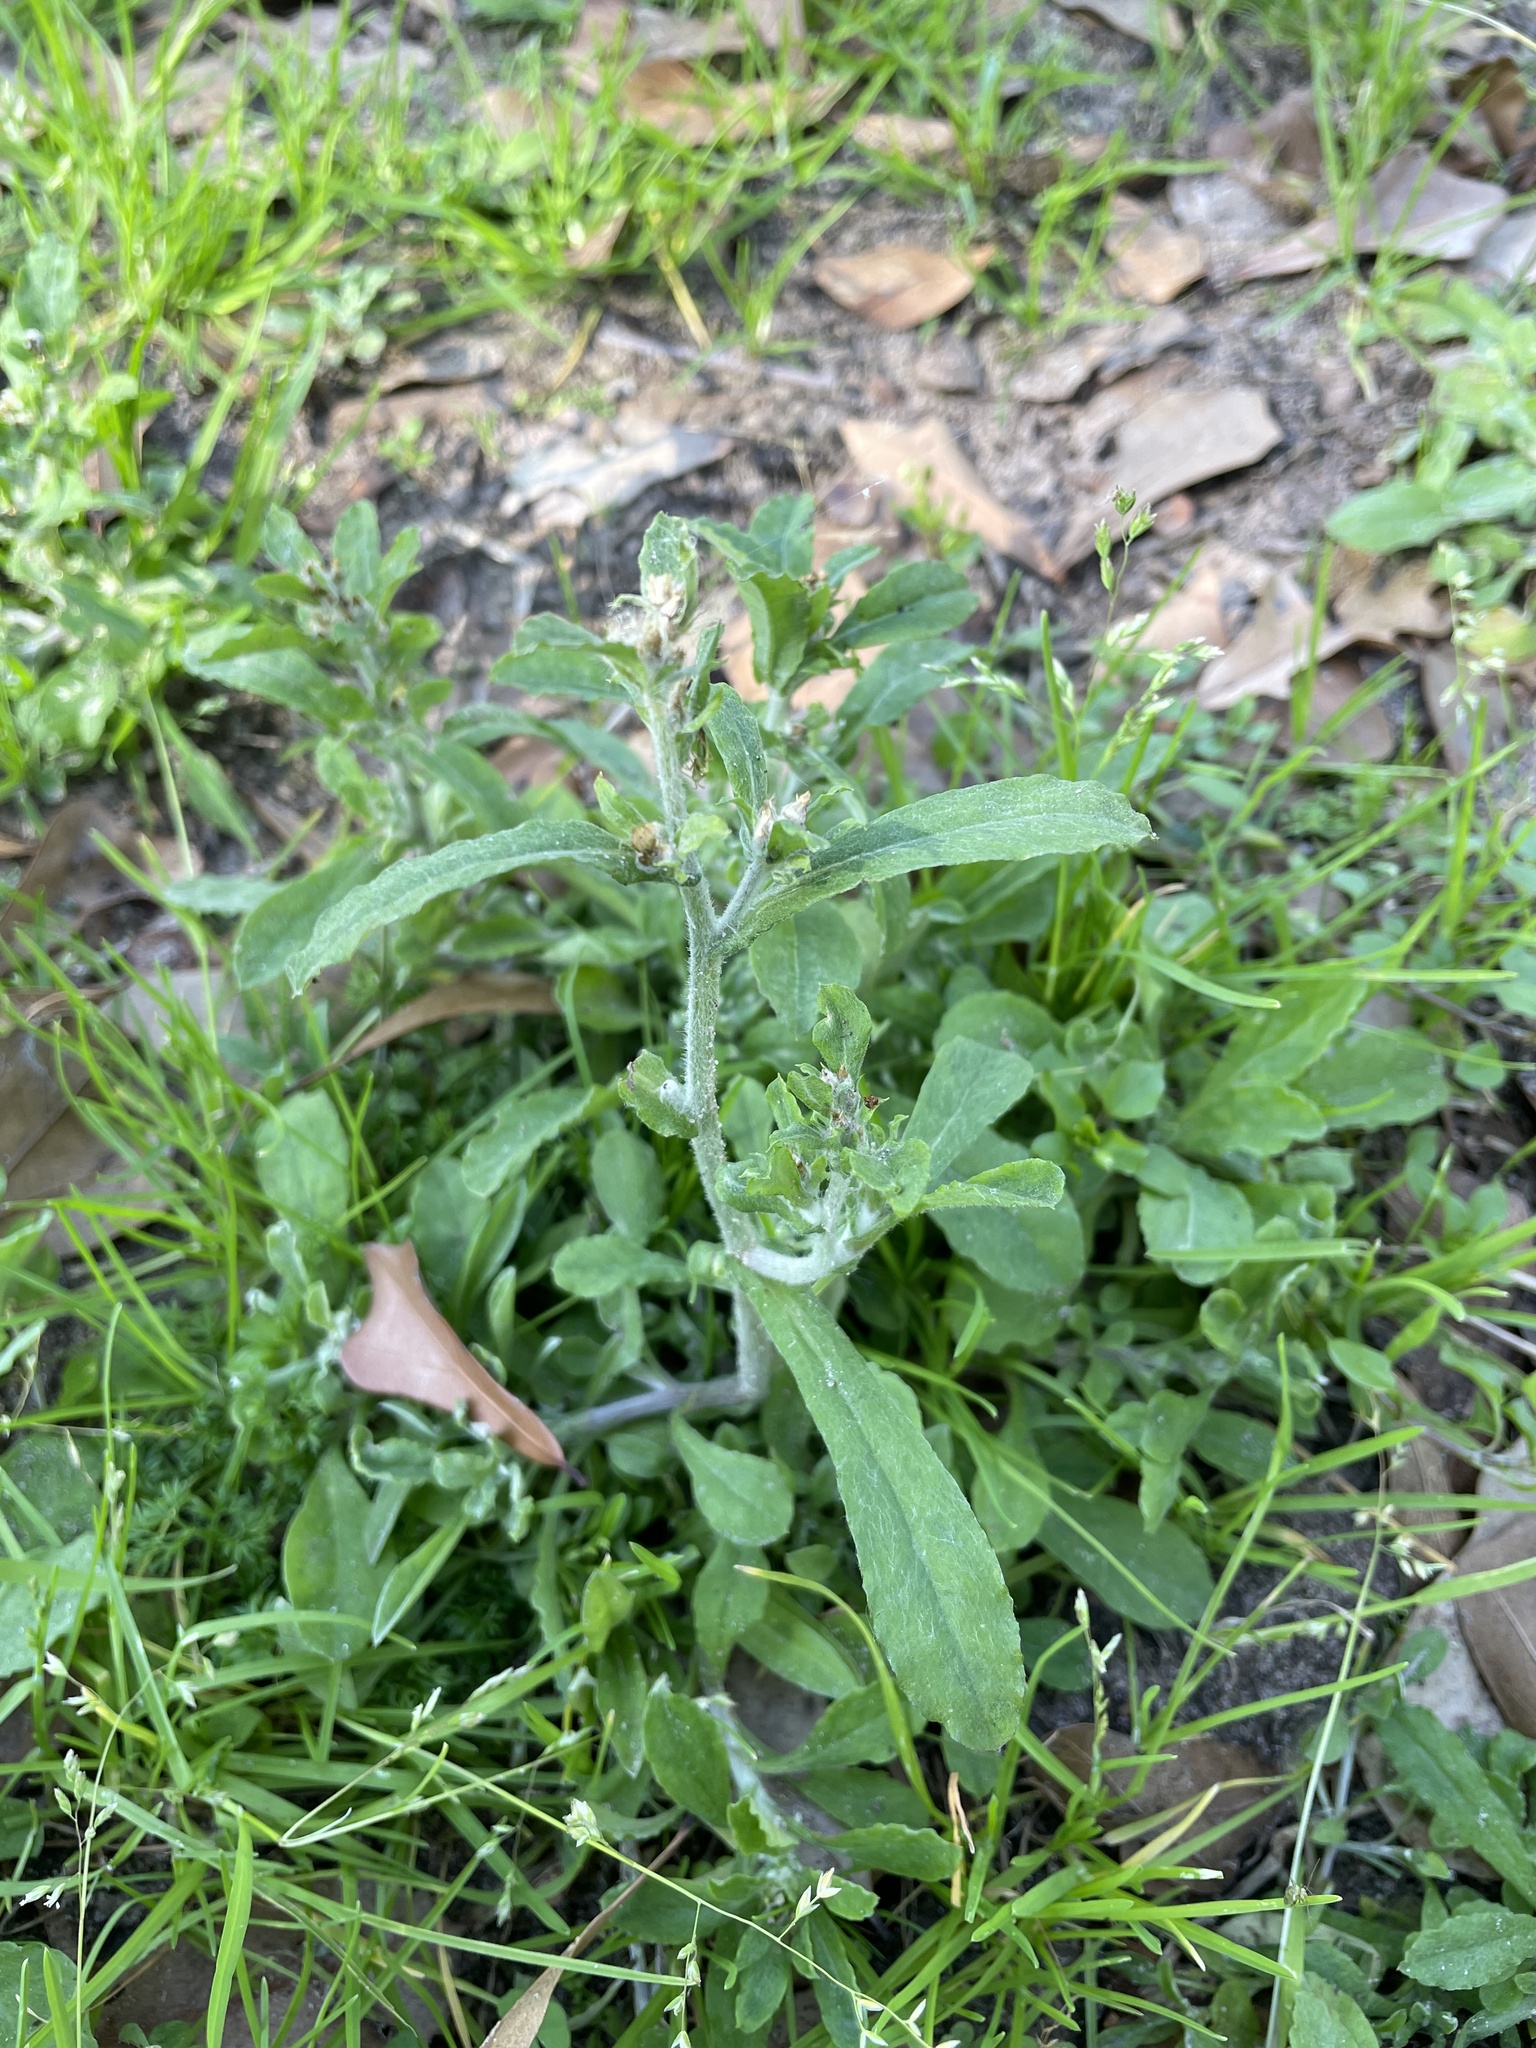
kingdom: Plantae
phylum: Tracheophyta
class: Magnoliopsida
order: Asterales
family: Asteraceae
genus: Gamochaeta
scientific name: Gamochaeta pensylvanica
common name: Pennsylvania everlasting
